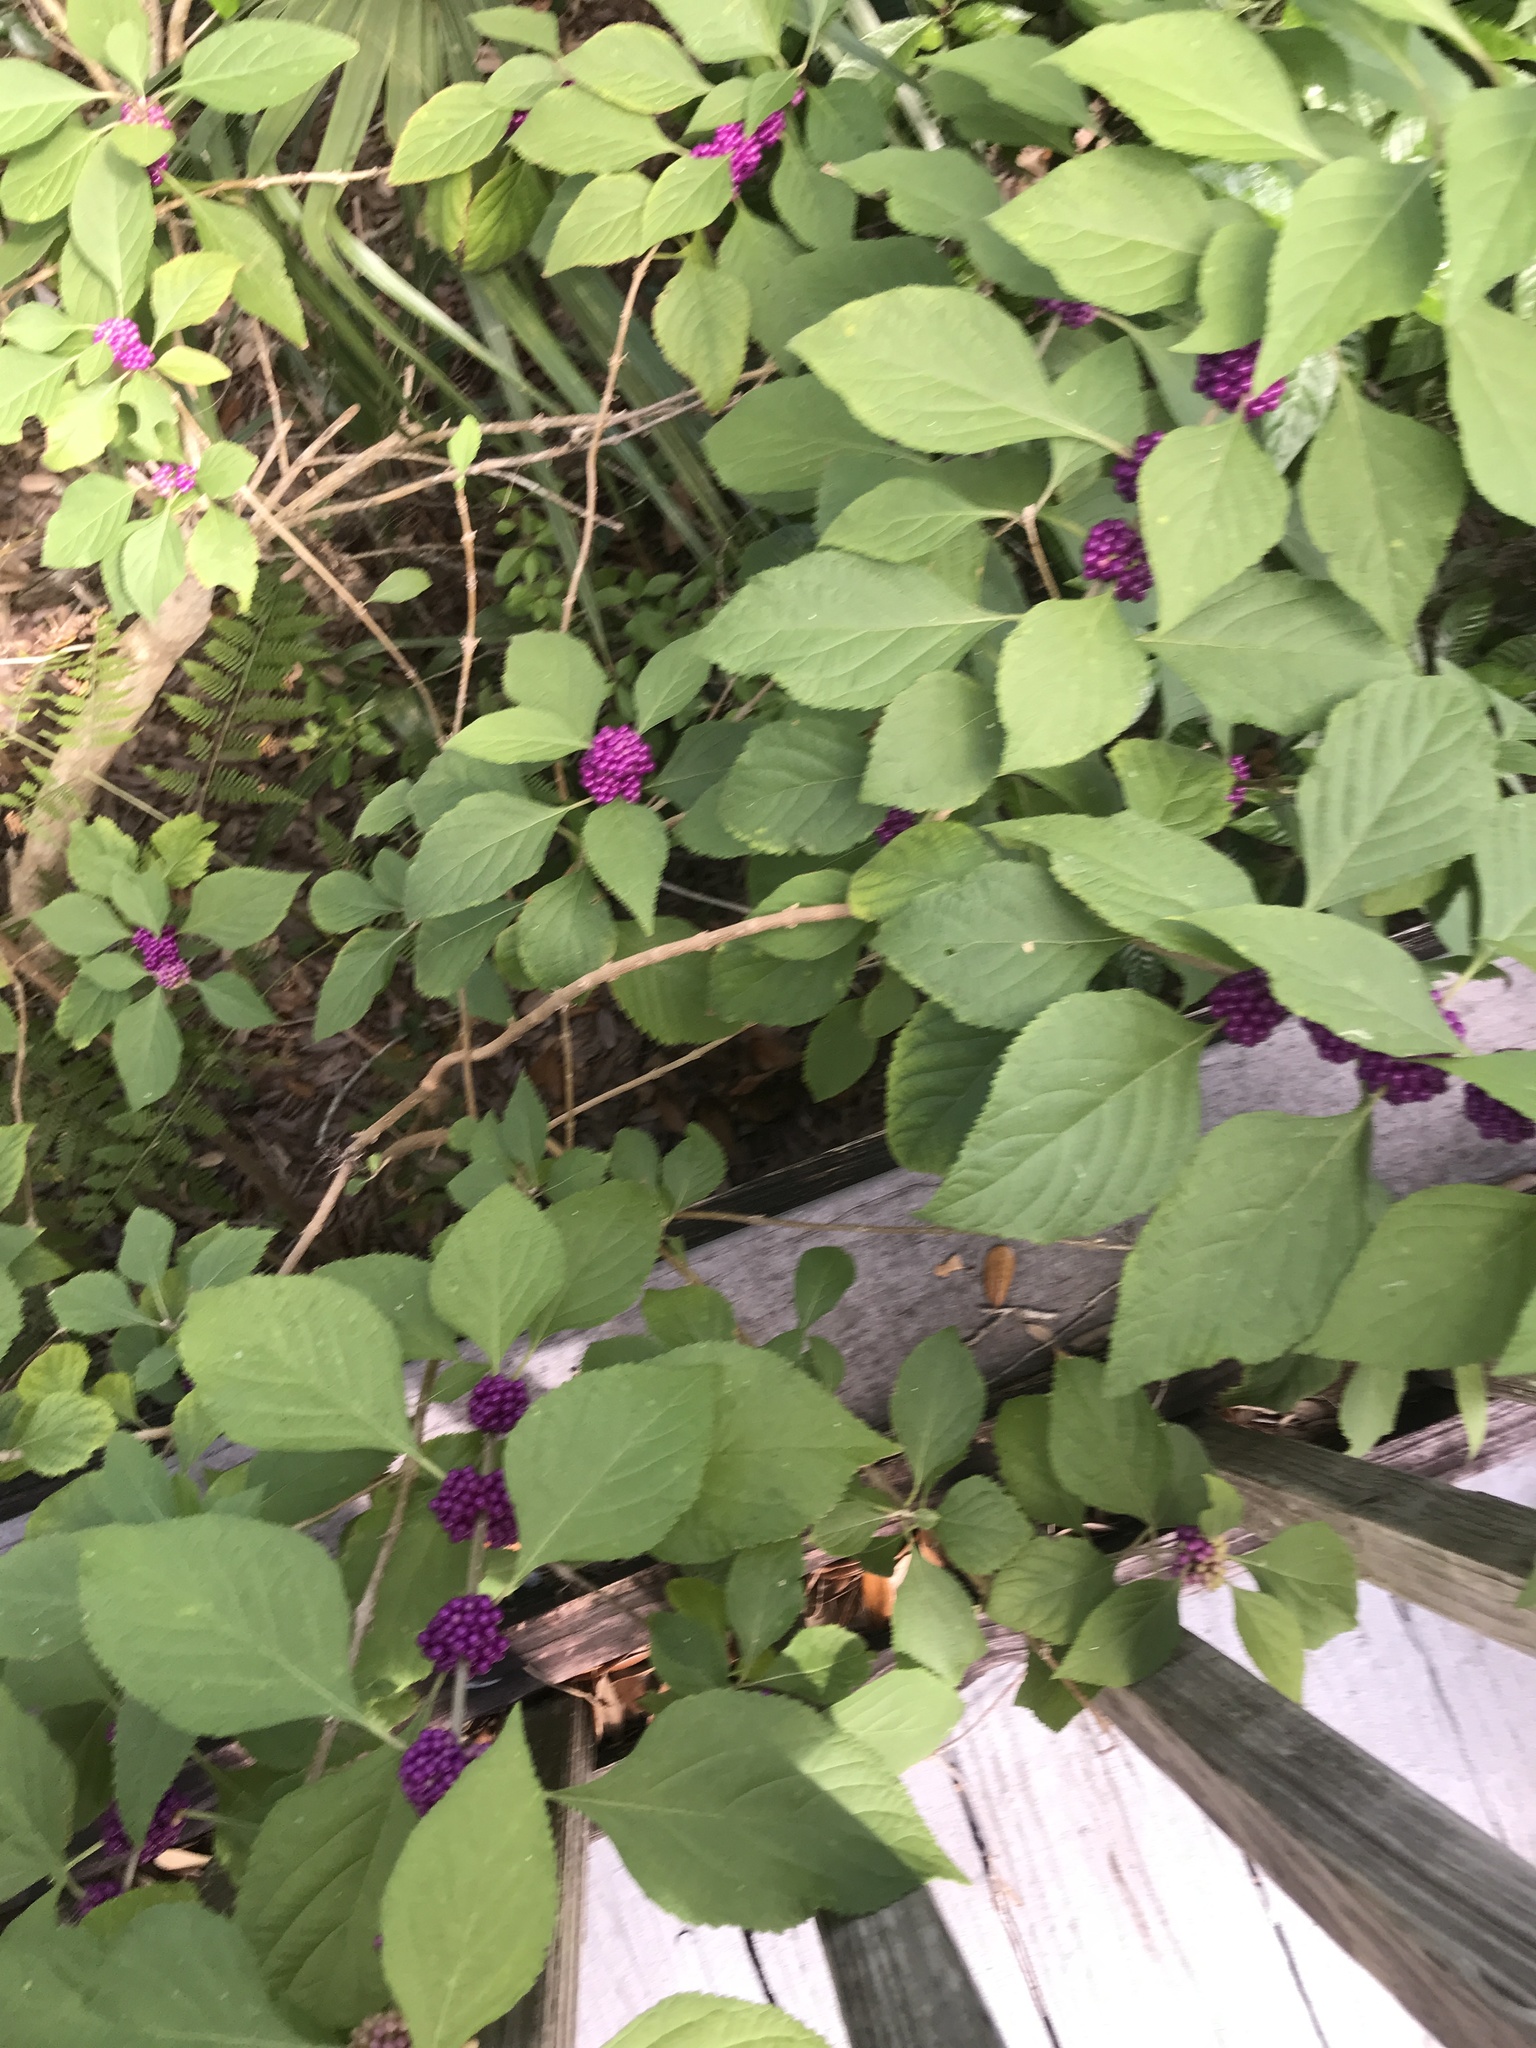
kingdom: Plantae
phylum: Tracheophyta
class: Magnoliopsida
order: Lamiales
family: Lamiaceae
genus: Callicarpa
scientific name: Callicarpa americana
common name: American beautyberry
